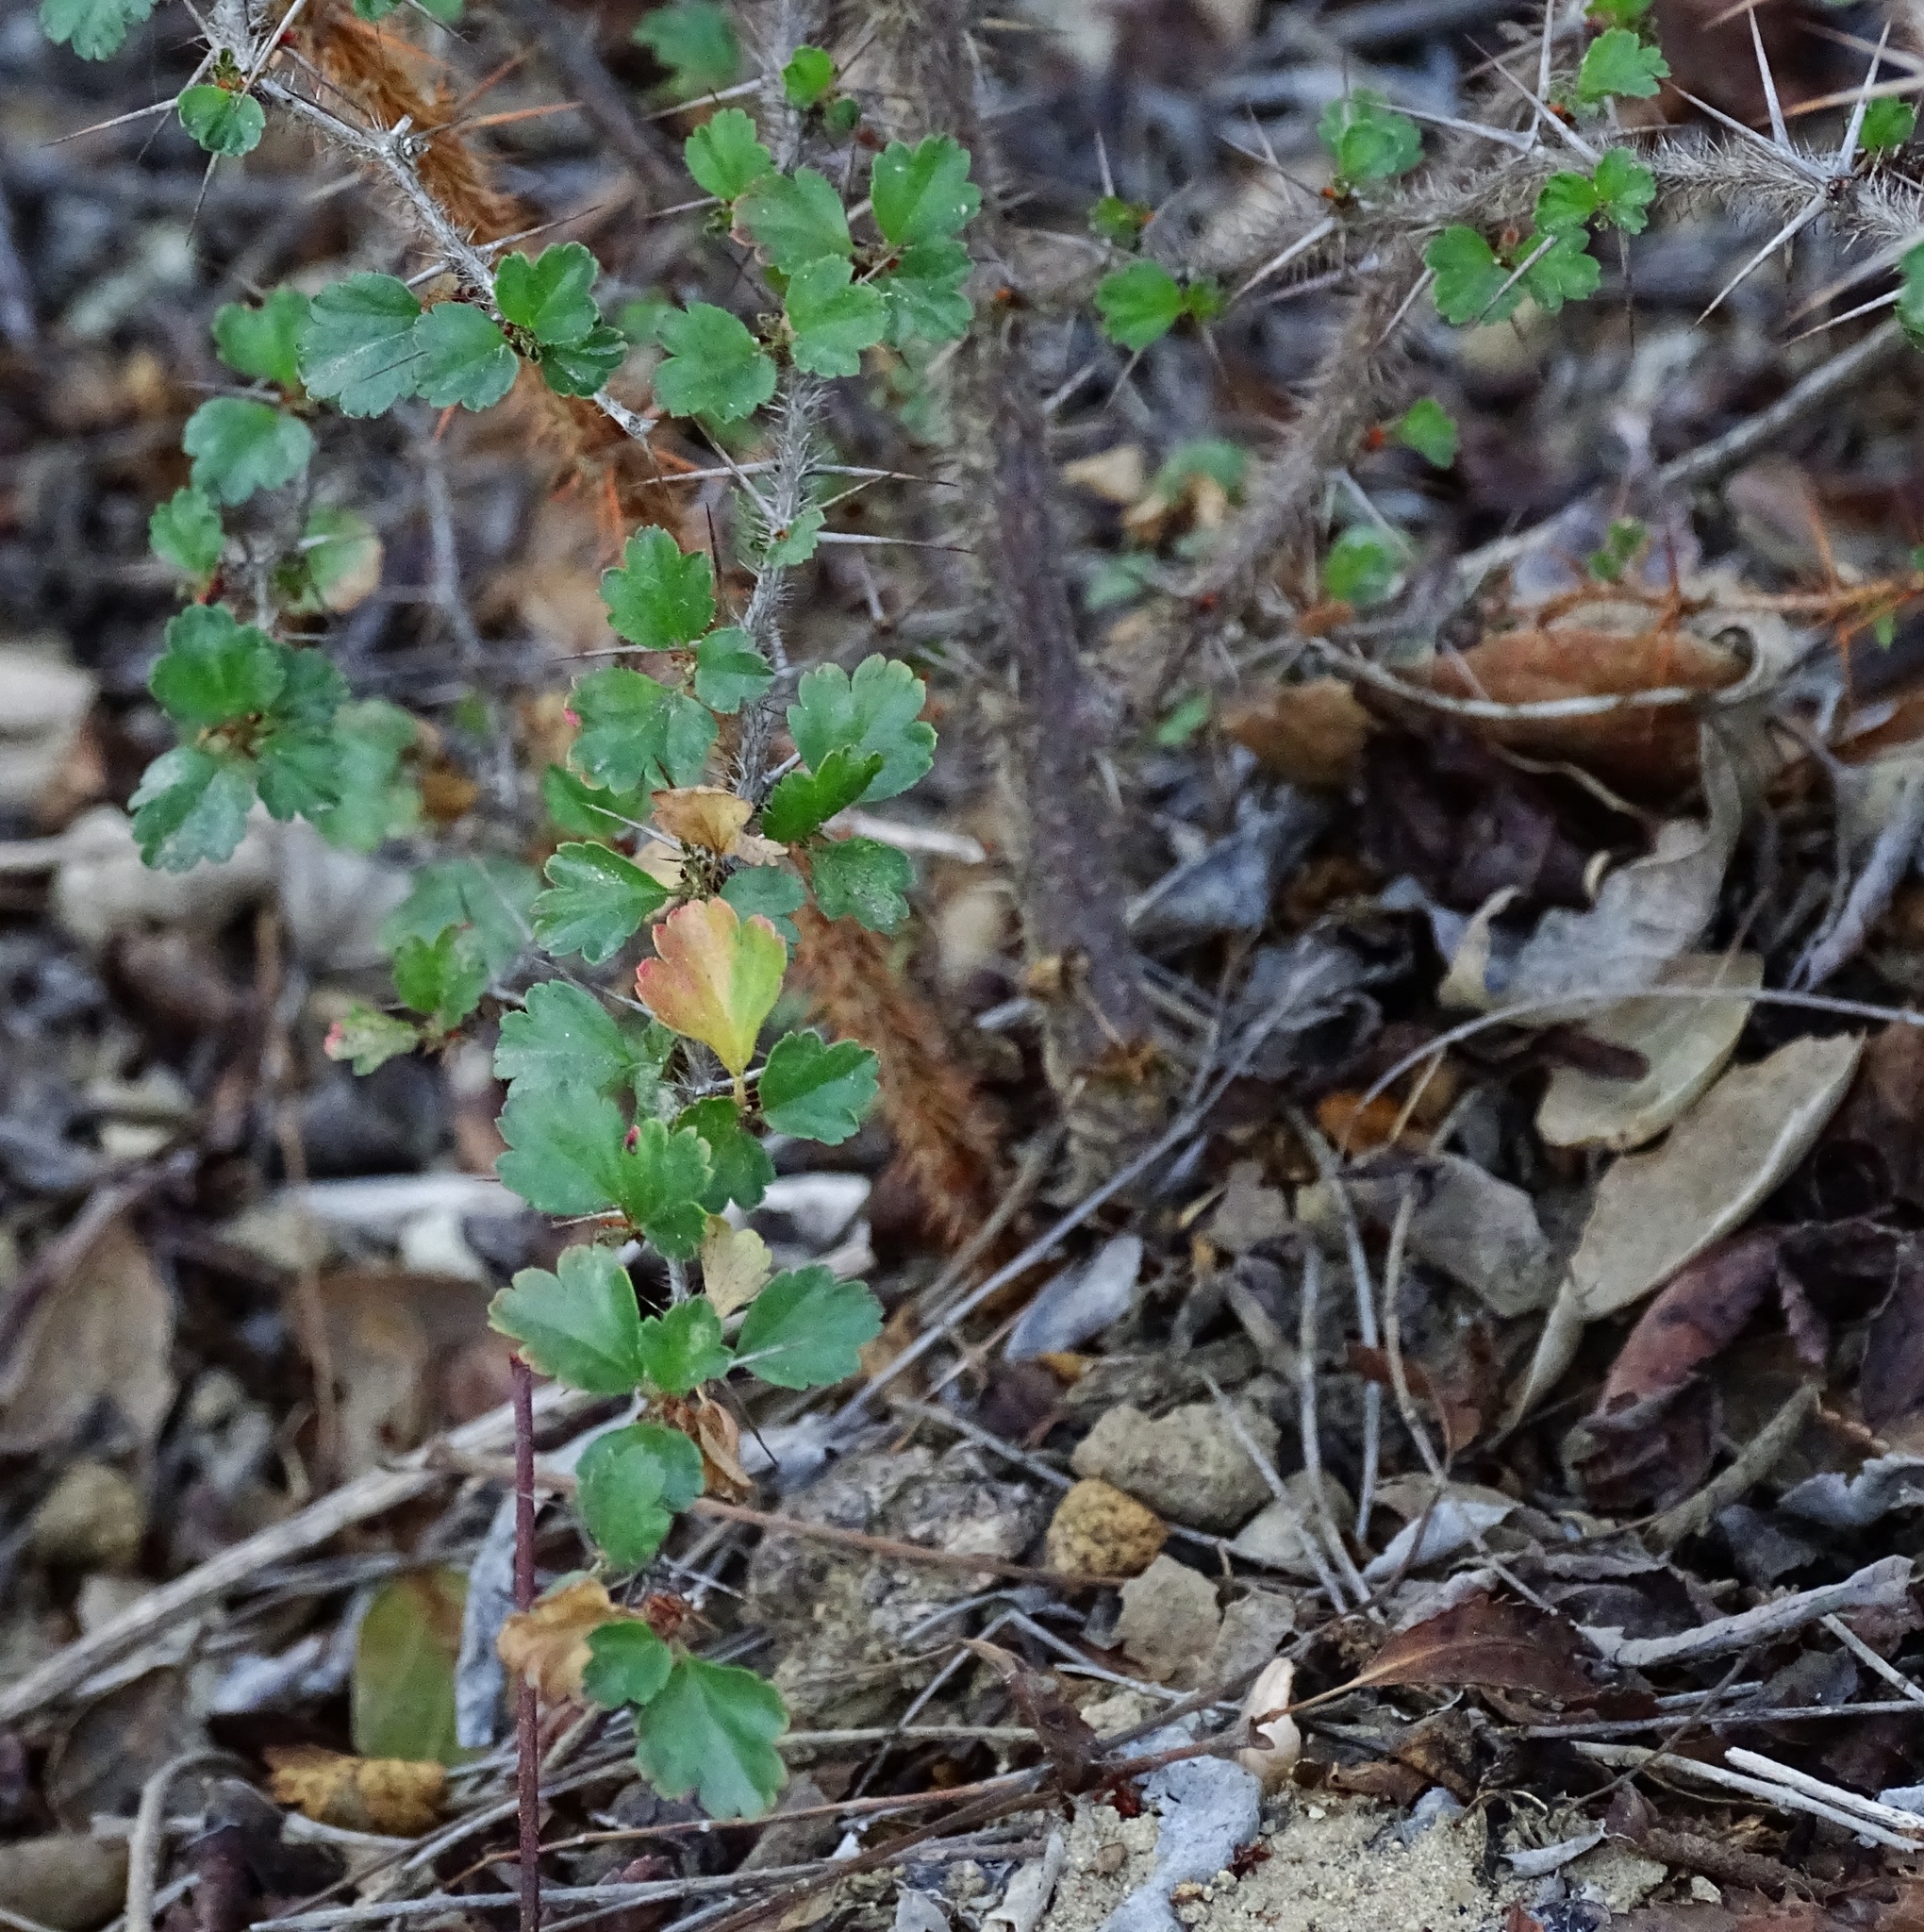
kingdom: Plantae
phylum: Tracheophyta
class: Magnoliopsida
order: Saxifragales
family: Grossulariaceae
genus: Ribes
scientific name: Ribes speciosum
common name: Fuchsia-flower gooseberry
